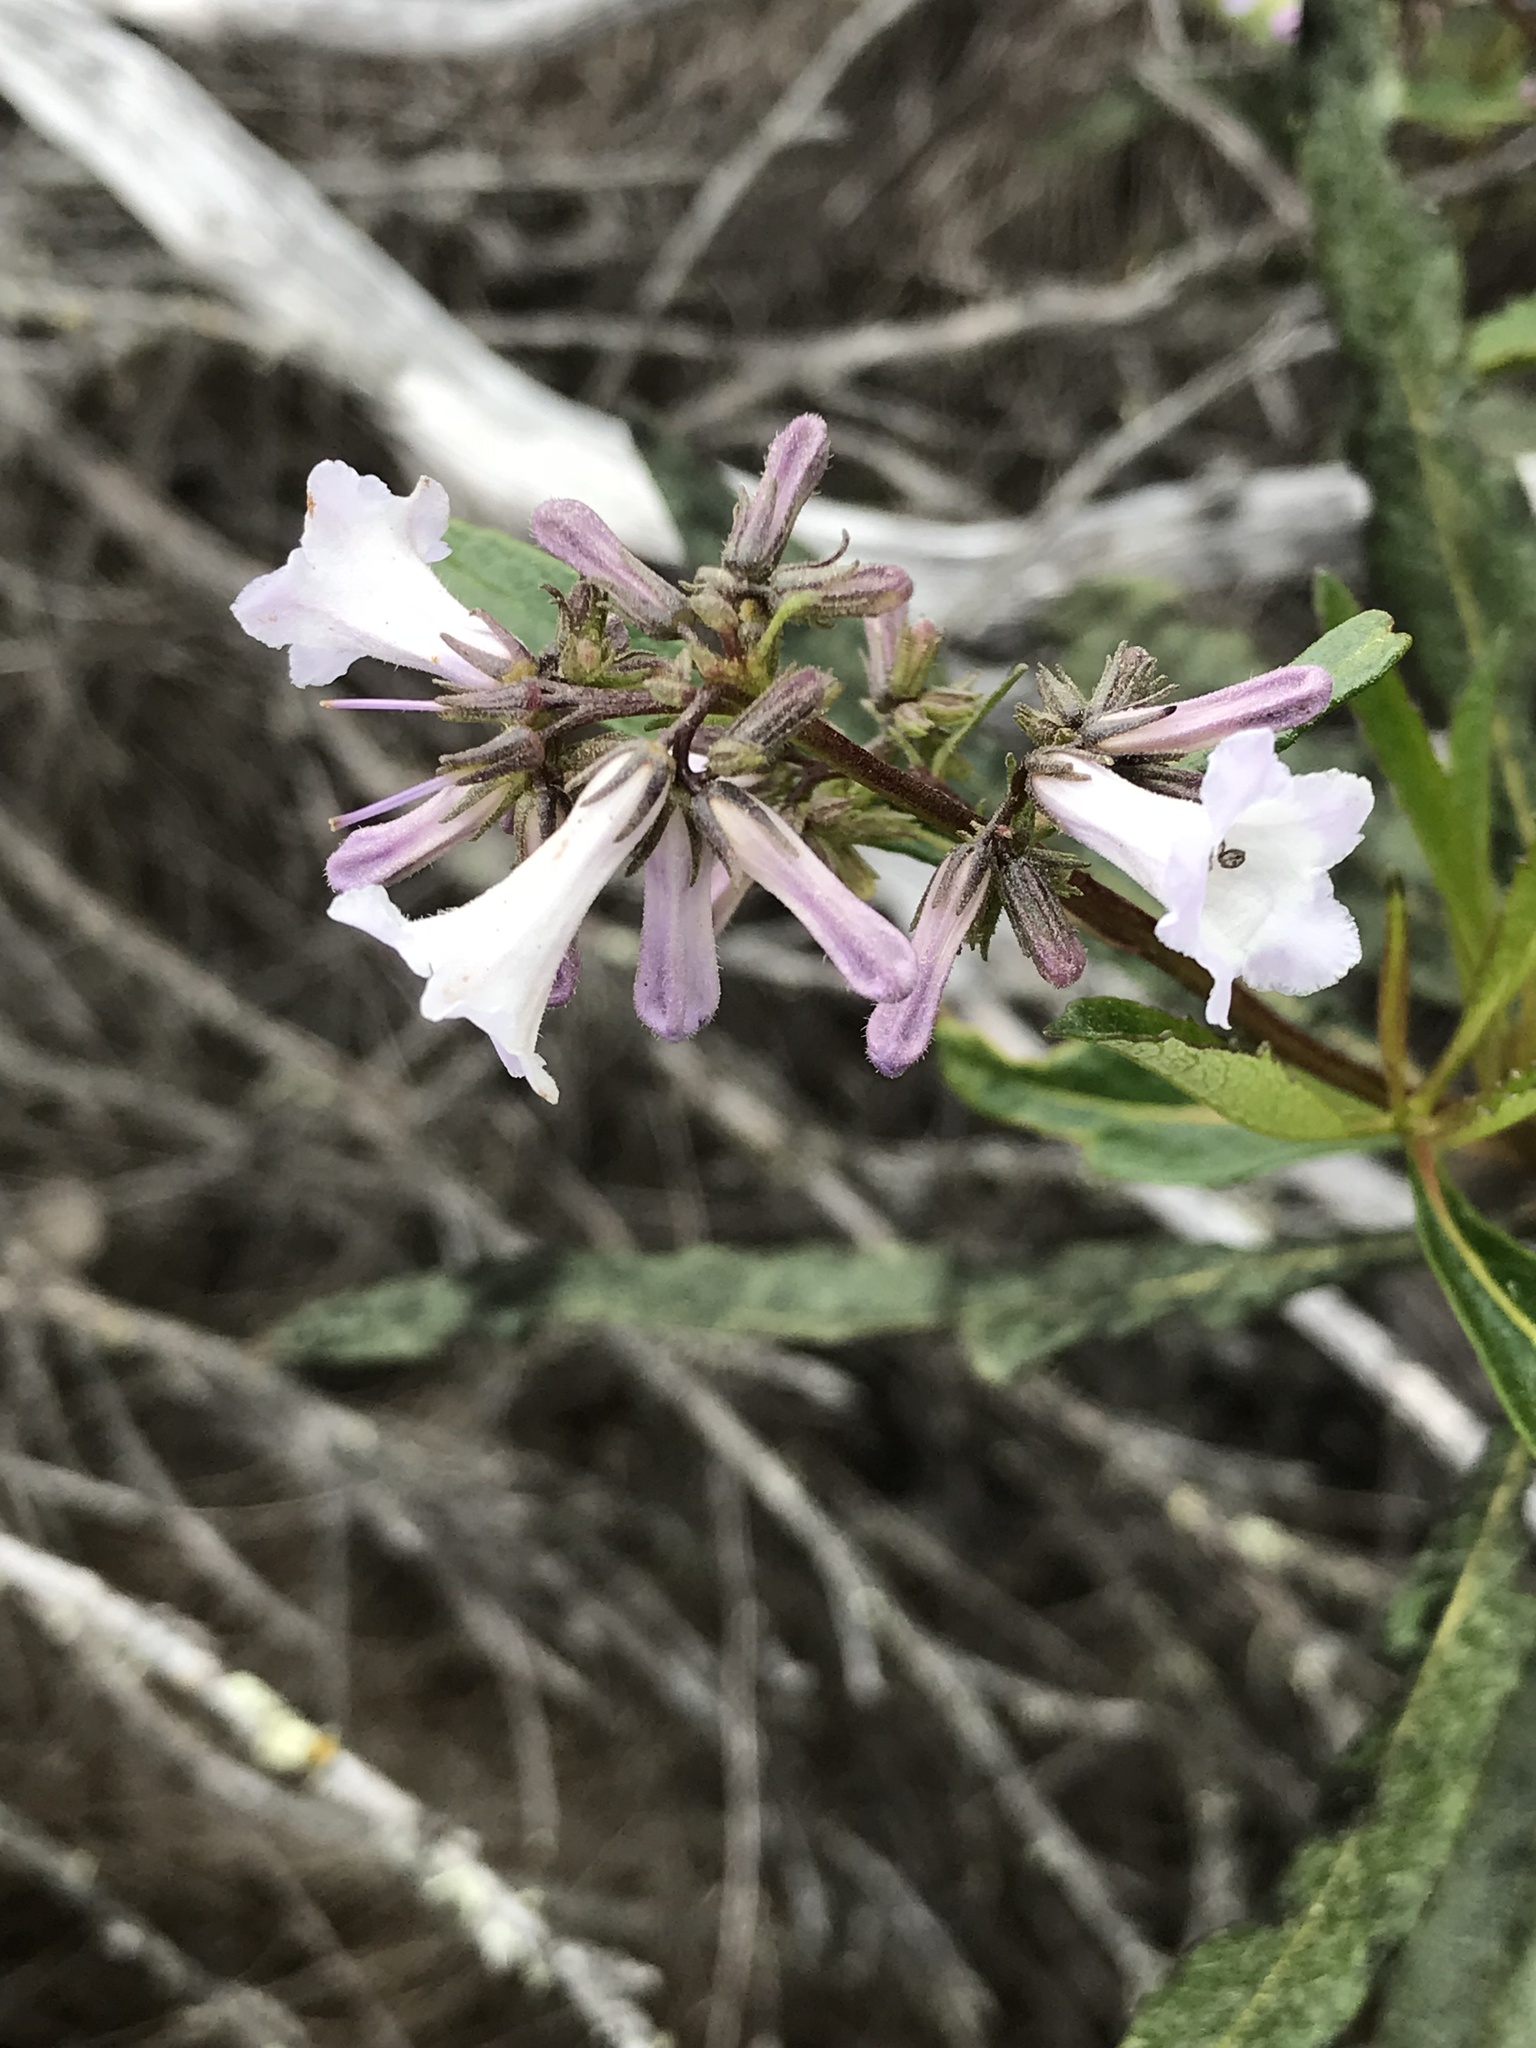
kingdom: Plantae
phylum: Tracheophyta
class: Magnoliopsida
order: Boraginales
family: Namaceae
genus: Eriodictyon
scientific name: Eriodictyon californicum
